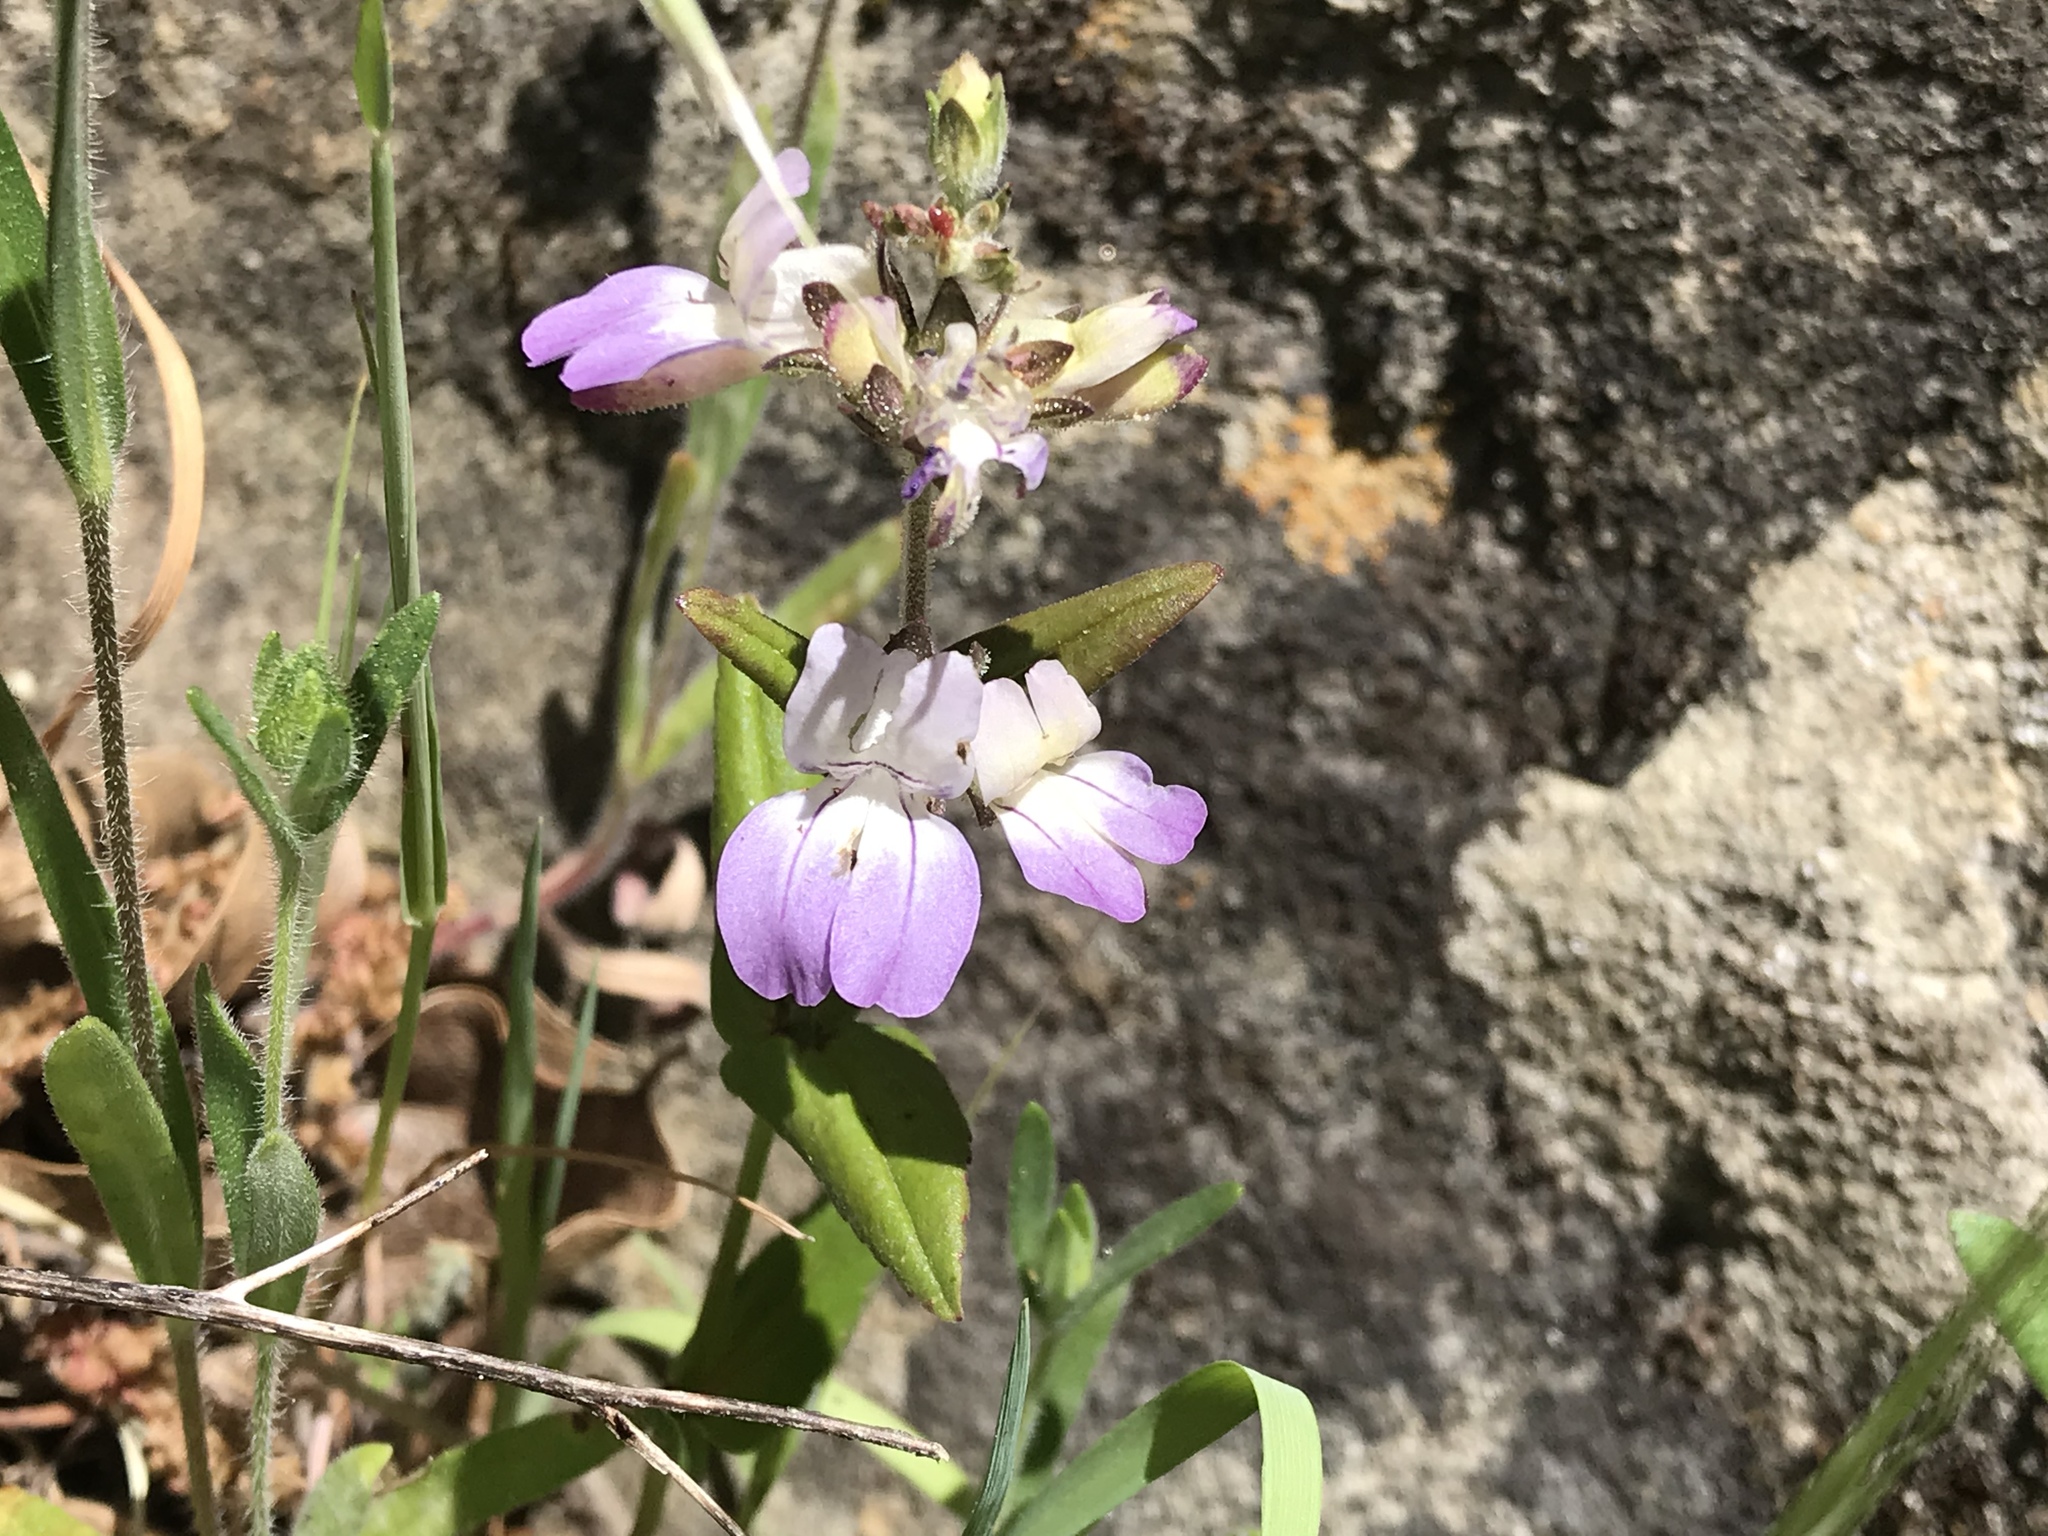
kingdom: Plantae
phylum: Tracheophyta
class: Magnoliopsida
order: Lamiales
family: Plantaginaceae
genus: Collinsia
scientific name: Collinsia heterophylla
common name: Chinese-houses
